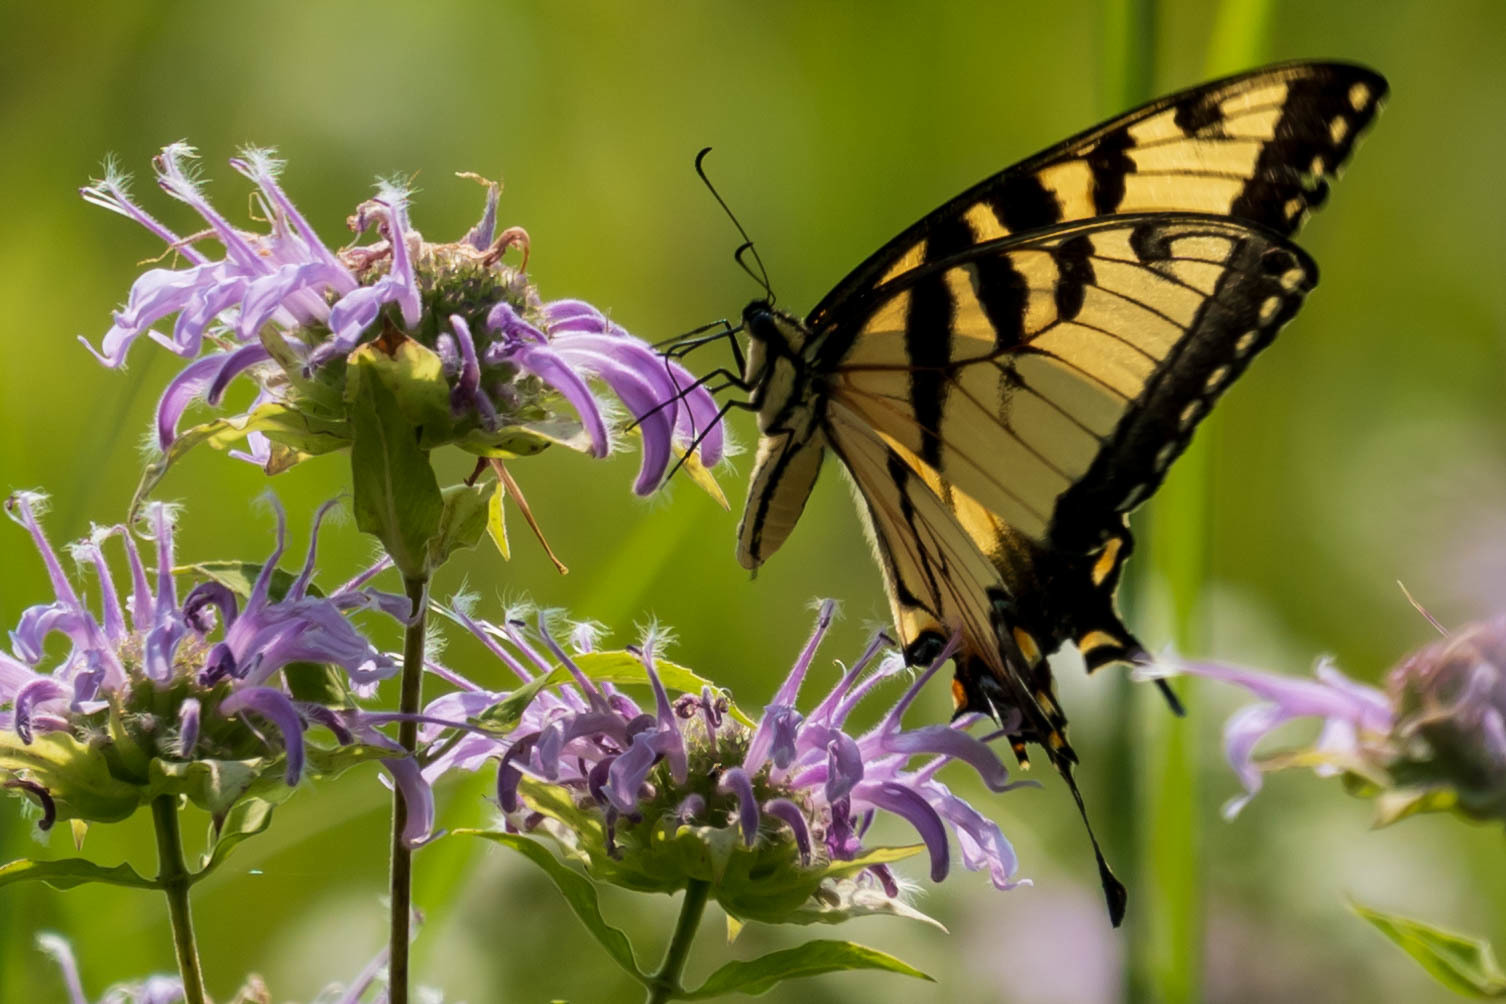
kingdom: Animalia
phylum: Arthropoda
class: Insecta
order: Lepidoptera
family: Papilionidae
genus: Papilio
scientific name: Papilio glaucus
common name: Tiger swallowtail
